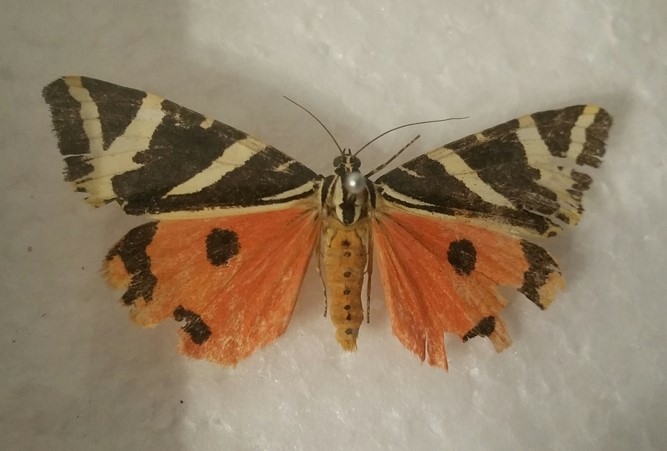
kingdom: Animalia
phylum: Arthropoda
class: Insecta
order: Lepidoptera
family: Erebidae
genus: Euplagia
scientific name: Euplagia quadripunctaria
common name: Jersey tiger
